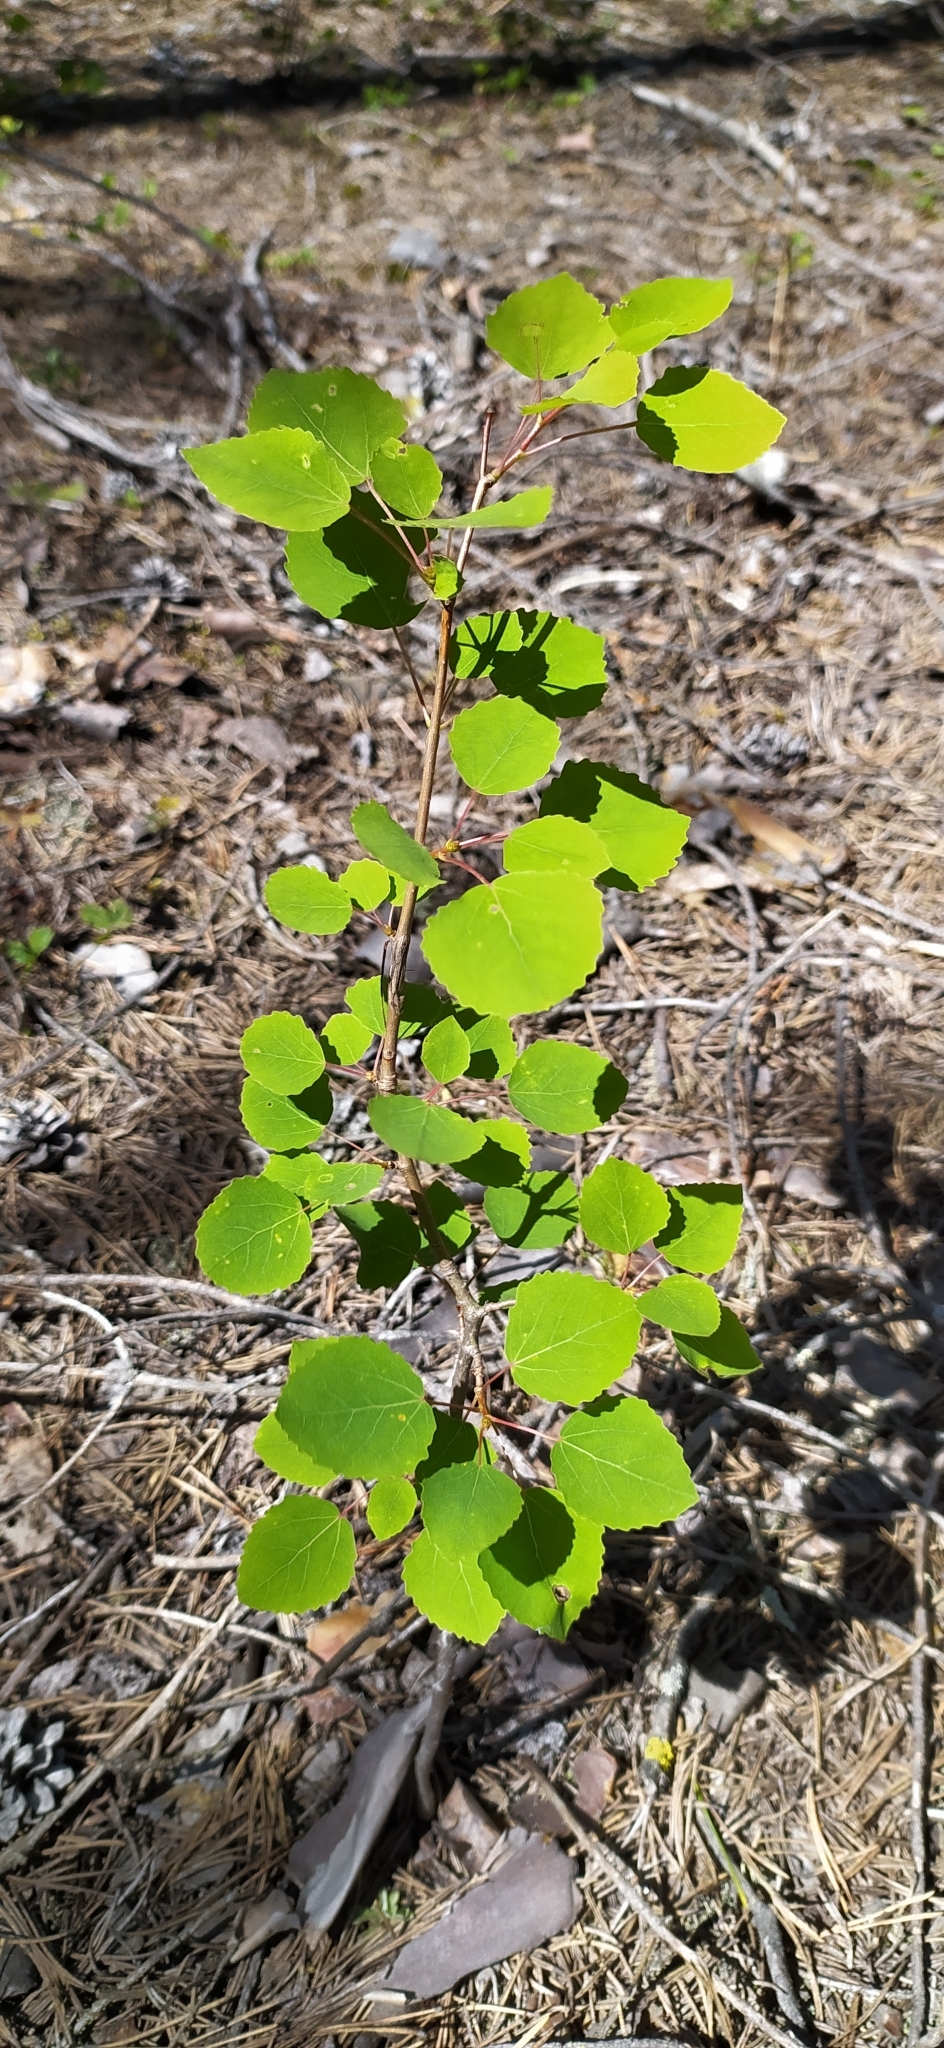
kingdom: Plantae
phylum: Tracheophyta
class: Magnoliopsida
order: Malpighiales
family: Salicaceae
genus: Populus
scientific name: Populus tremula
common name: European aspen
